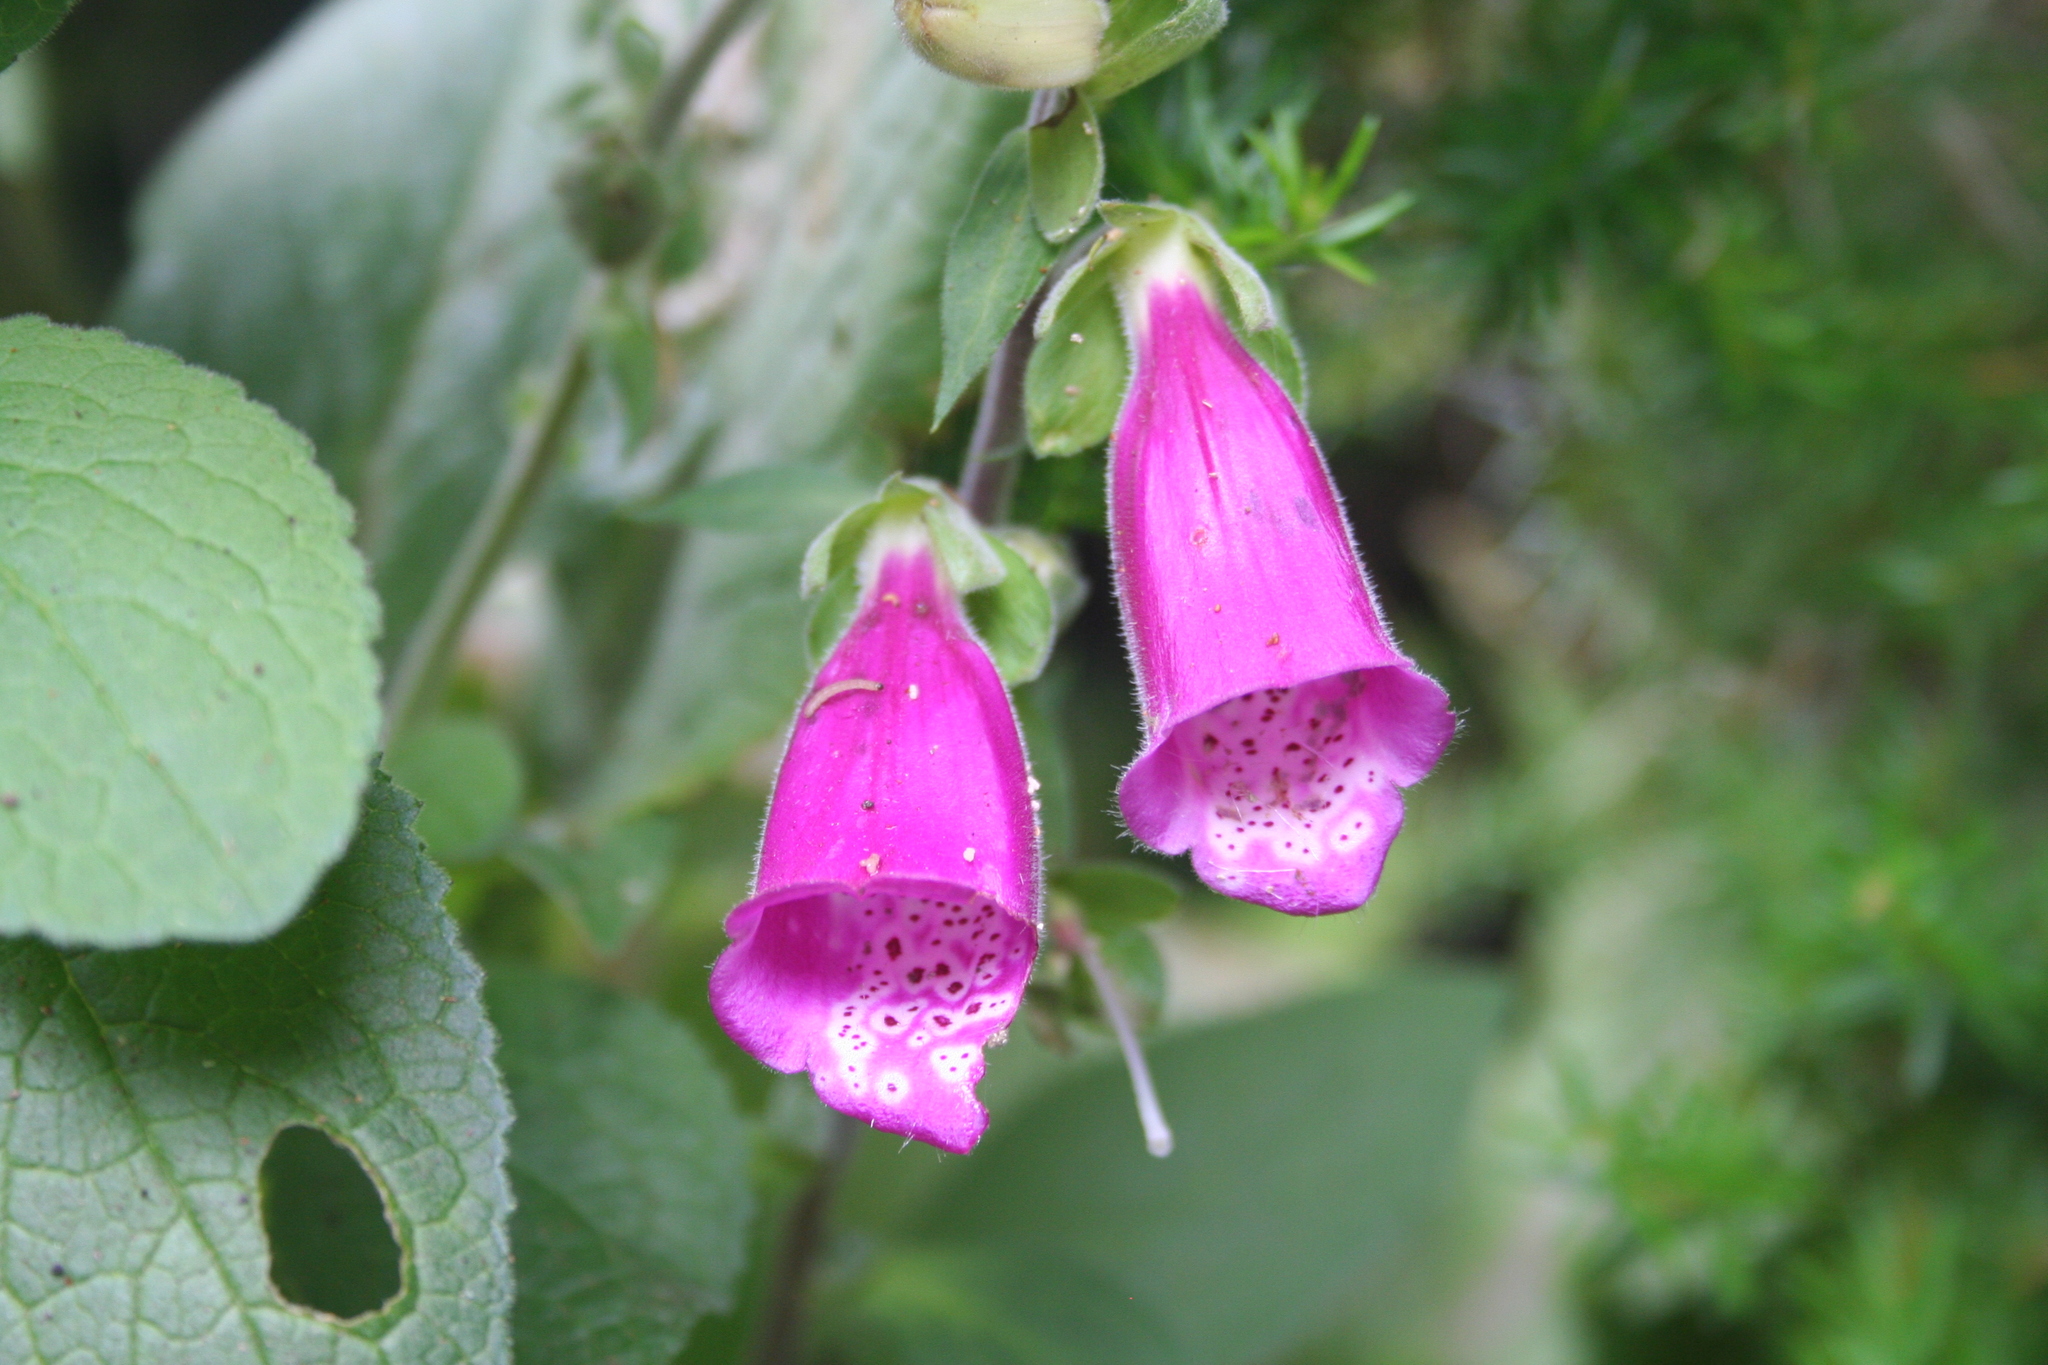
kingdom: Plantae
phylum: Tracheophyta
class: Magnoliopsida
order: Lamiales
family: Plantaginaceae
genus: Digitalis
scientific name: Digitalis purpurea
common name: Foxglove
